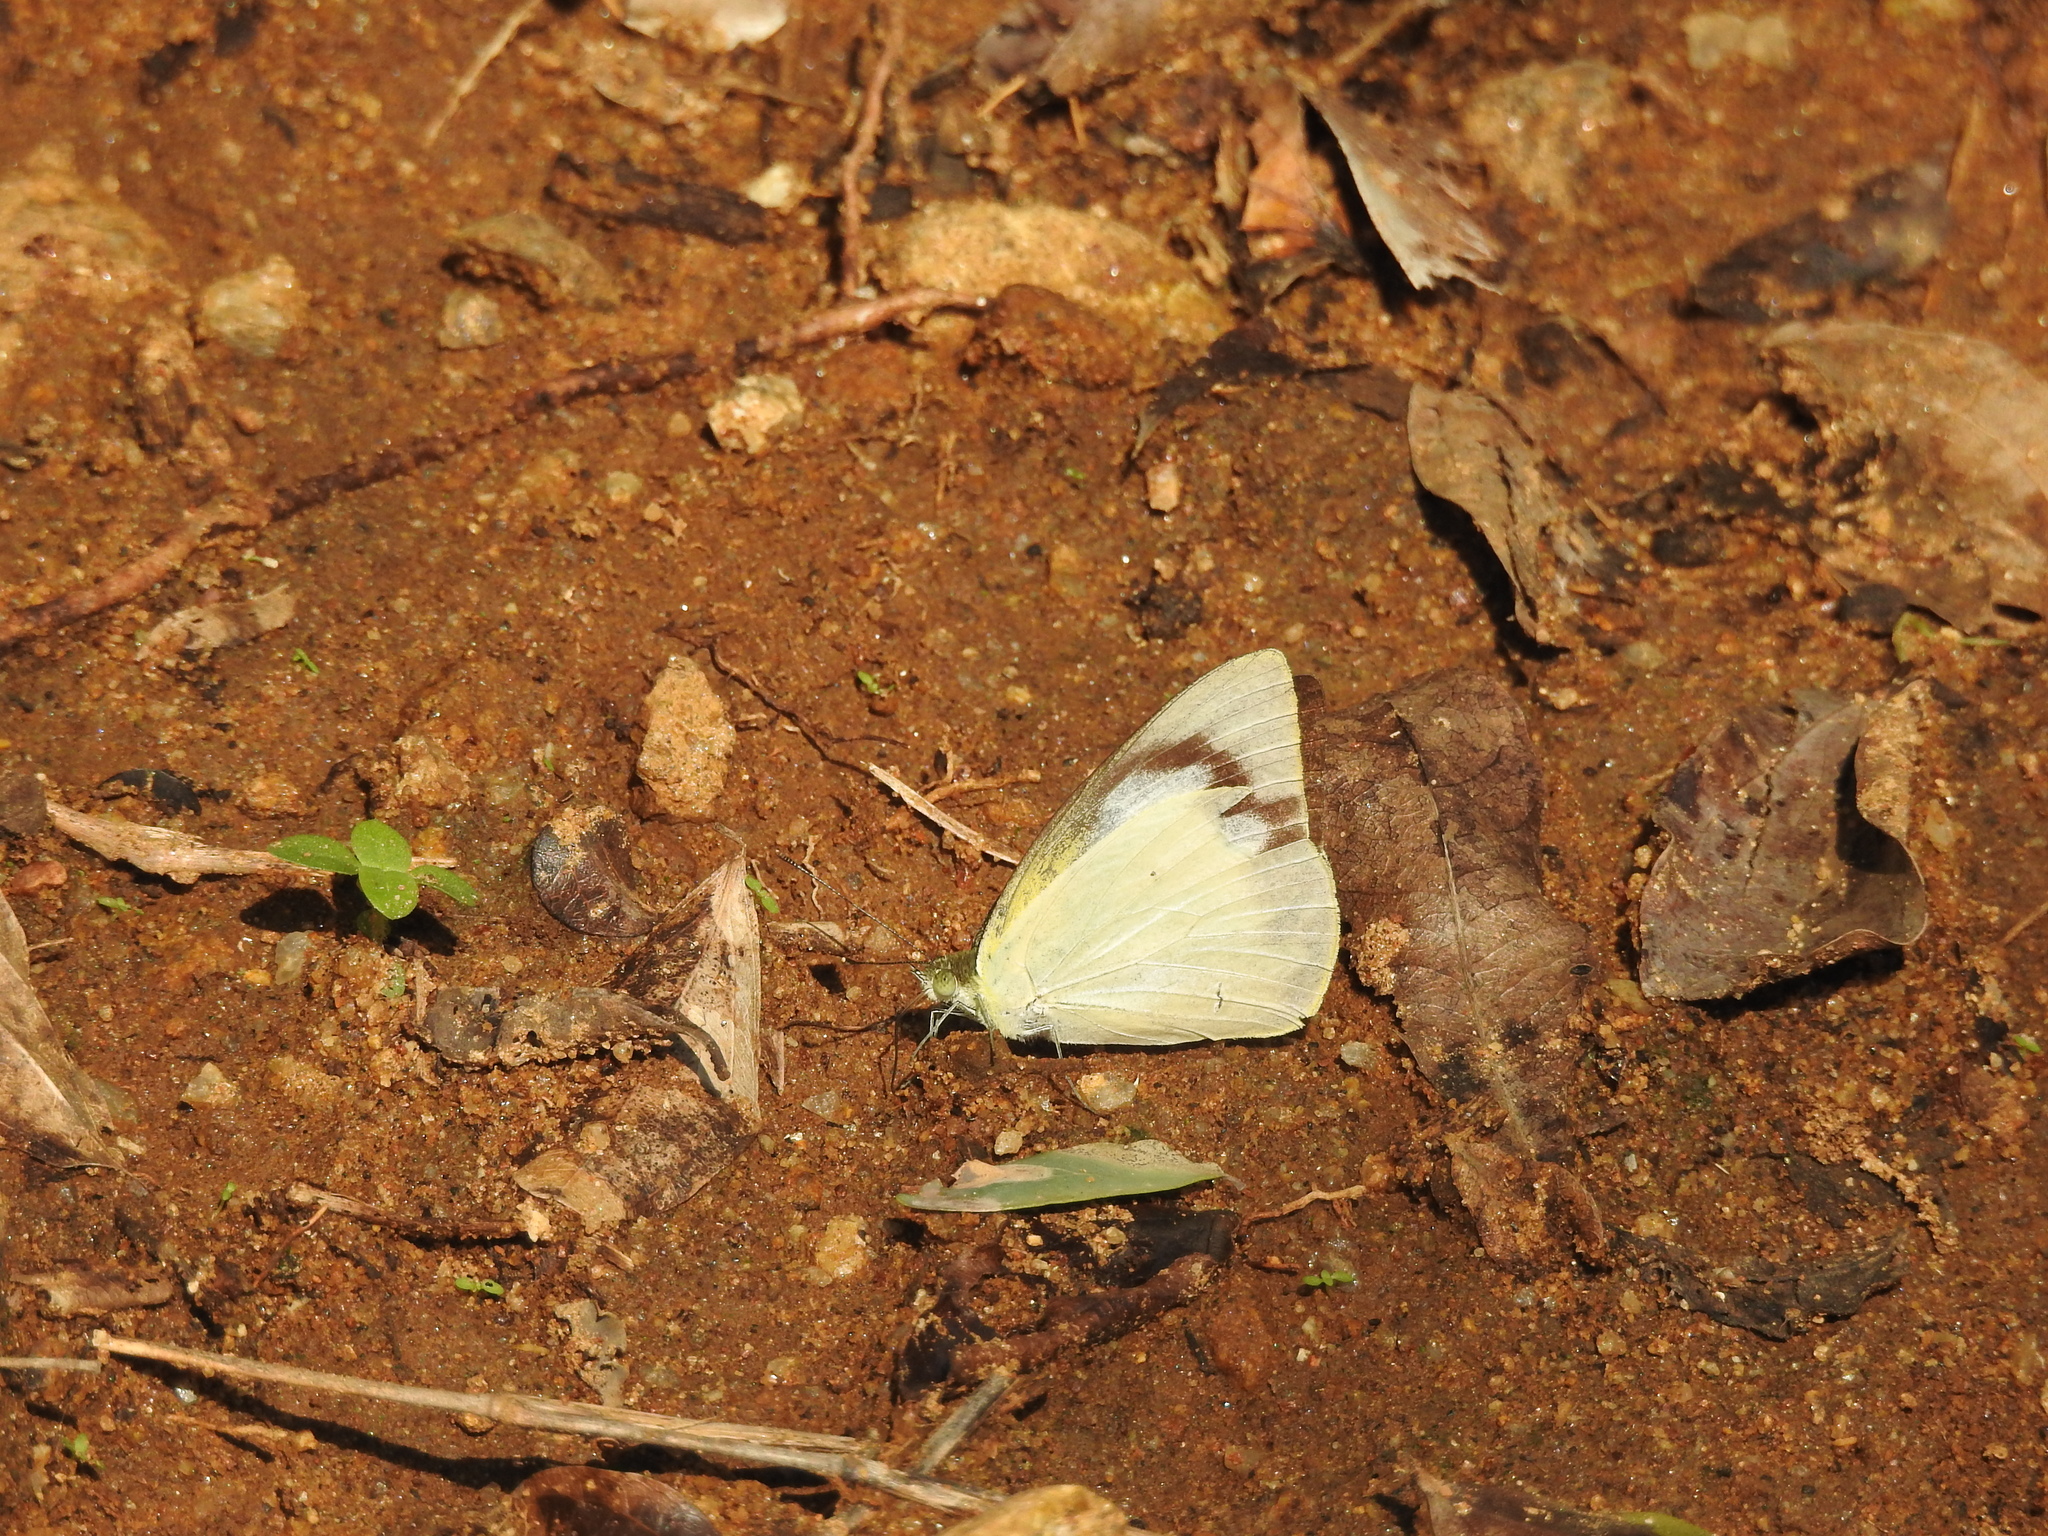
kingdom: Animalia
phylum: Arthropoda
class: Insecta
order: Lepidoptera
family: Pieridae
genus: Appias
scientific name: Appias albina
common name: Common albatross
